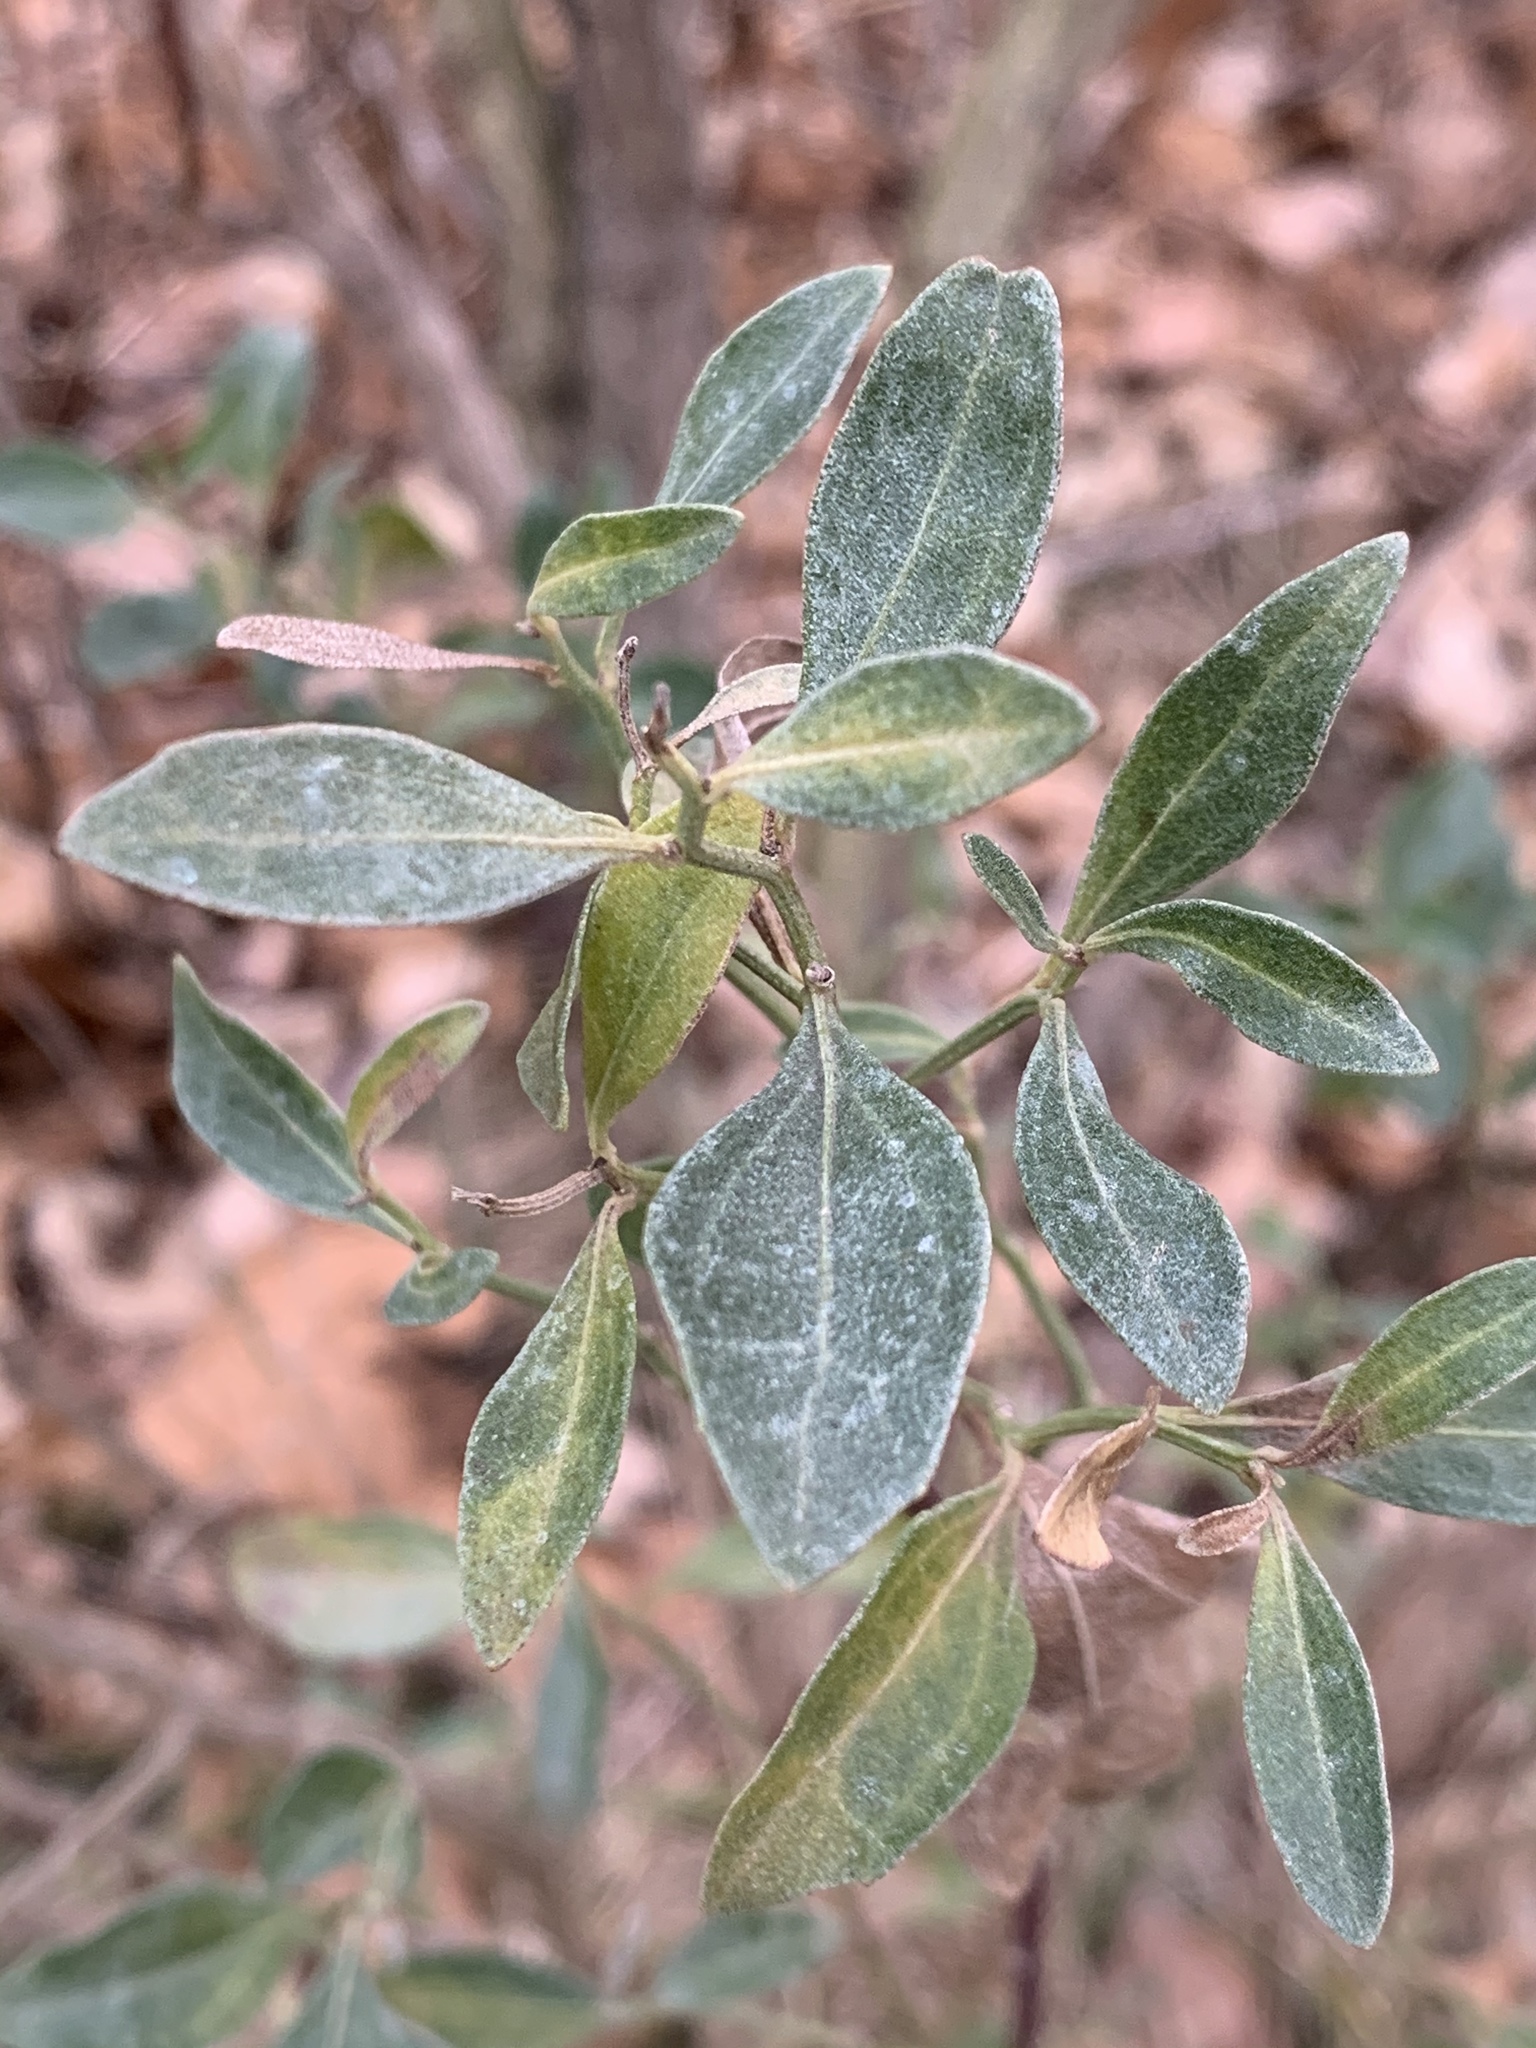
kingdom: Plantae
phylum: Tracheophyta
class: Magnoliopsida
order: Asterales
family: Asteraceae
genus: Baccharis
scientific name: Baccharis halimifolia
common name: Eastern baccharis
